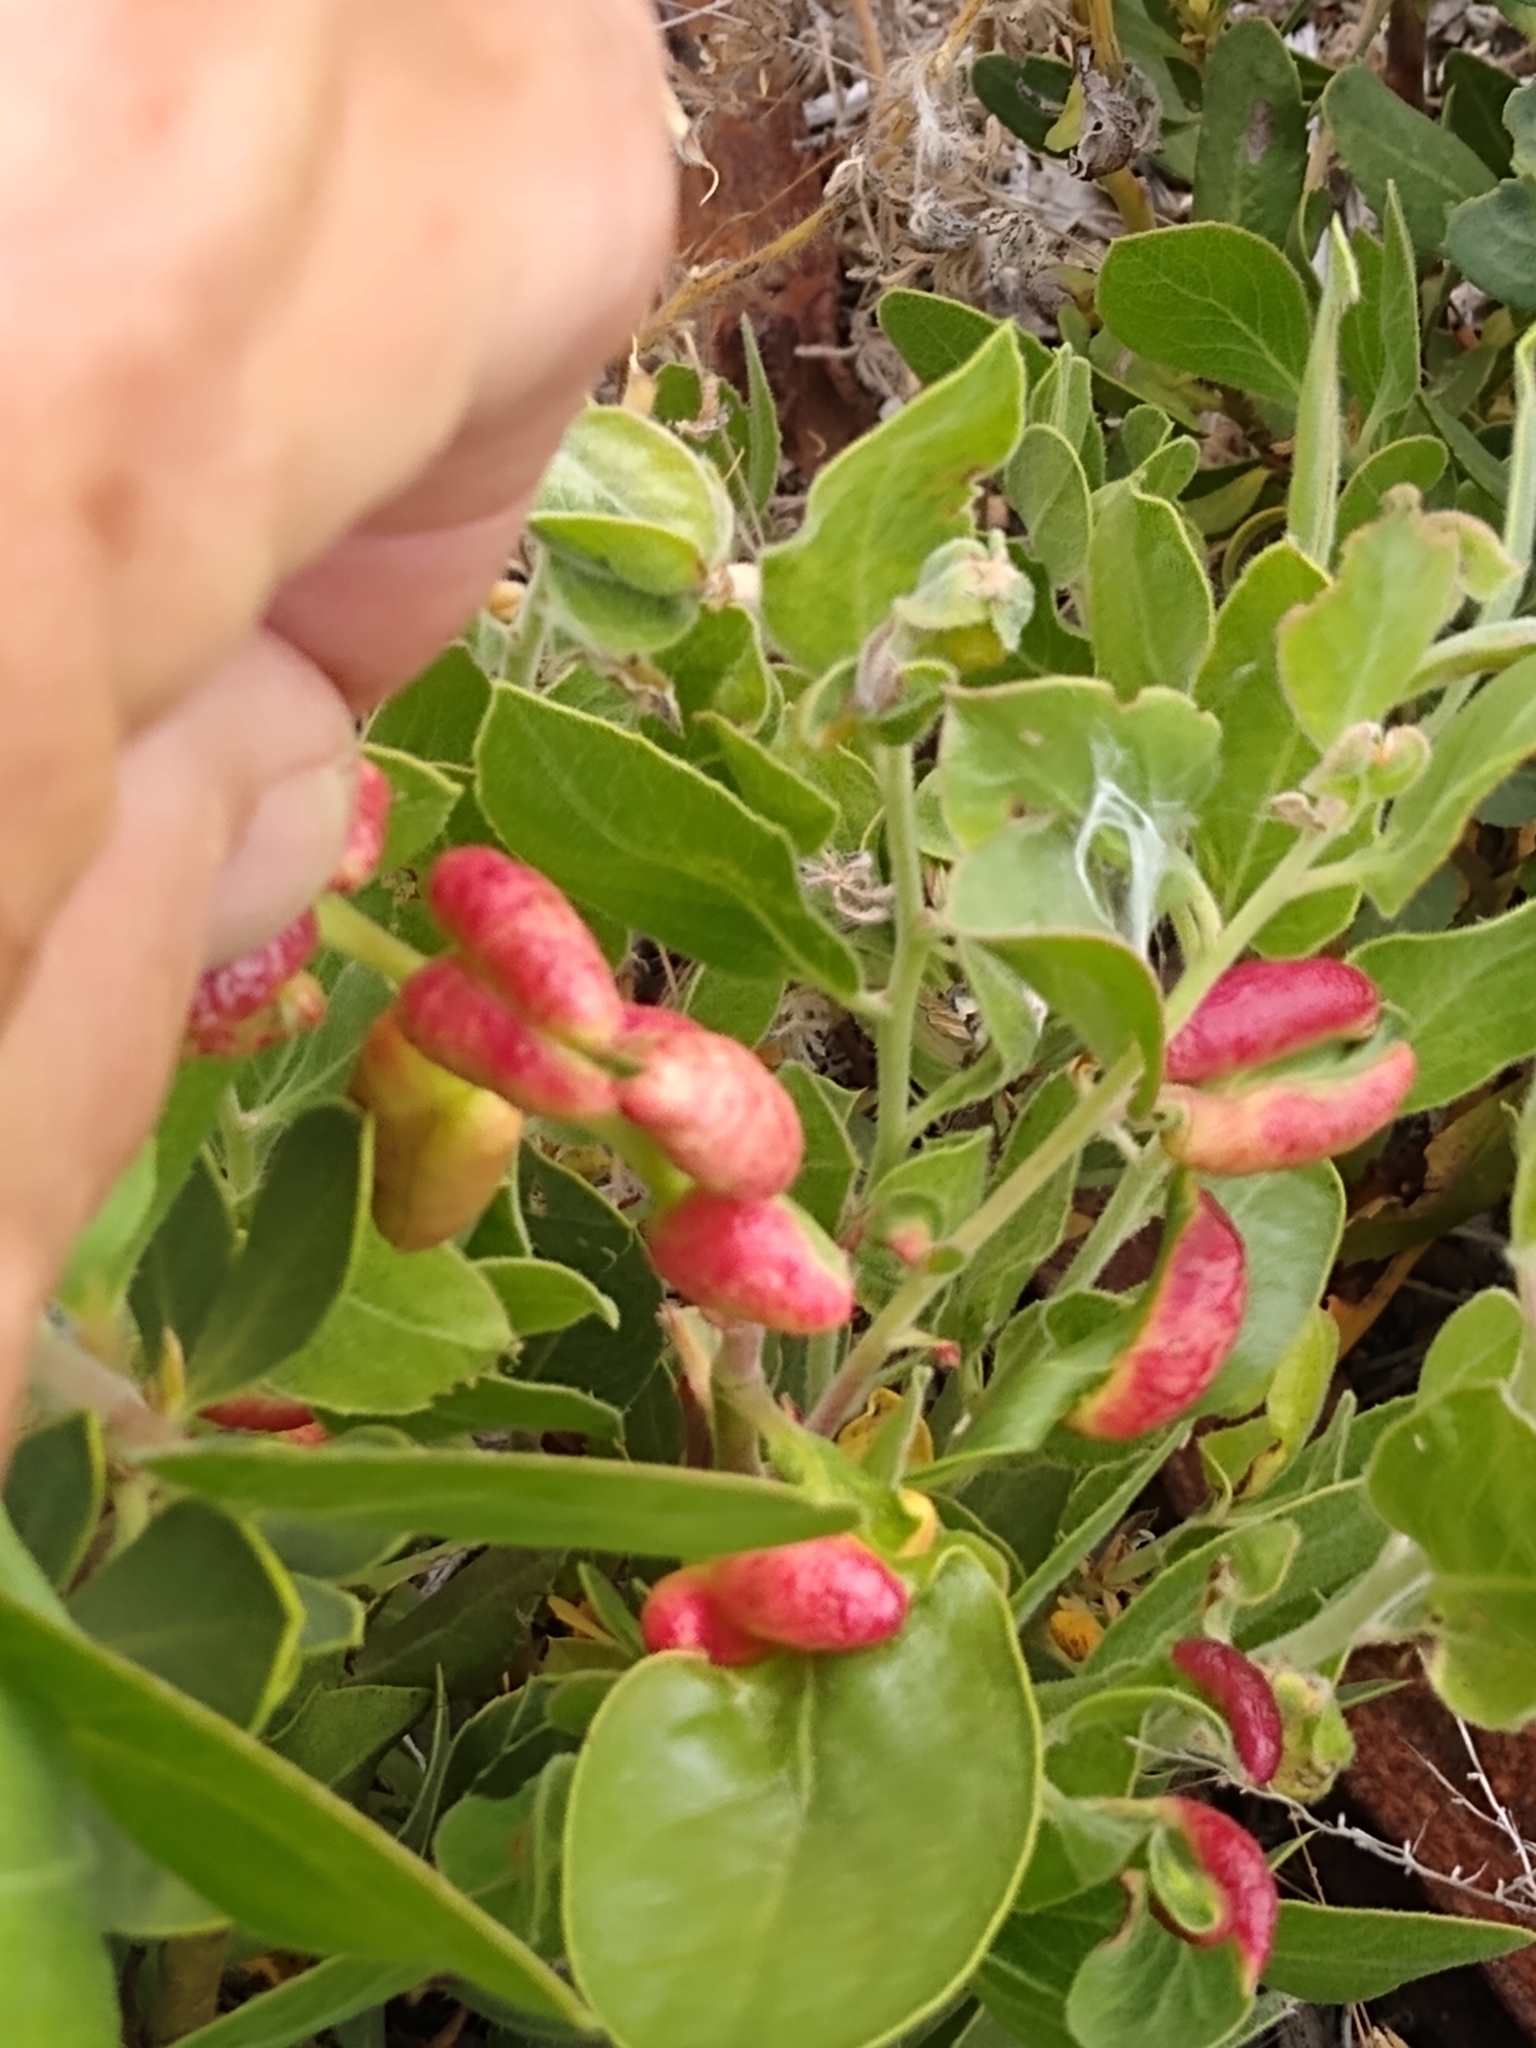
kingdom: Animalia
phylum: Arthropoda
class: Insecta
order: Hemiptera
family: Aphididae
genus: Tamalia
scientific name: Tamalia coweni
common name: Manzanita leafgall aphid
